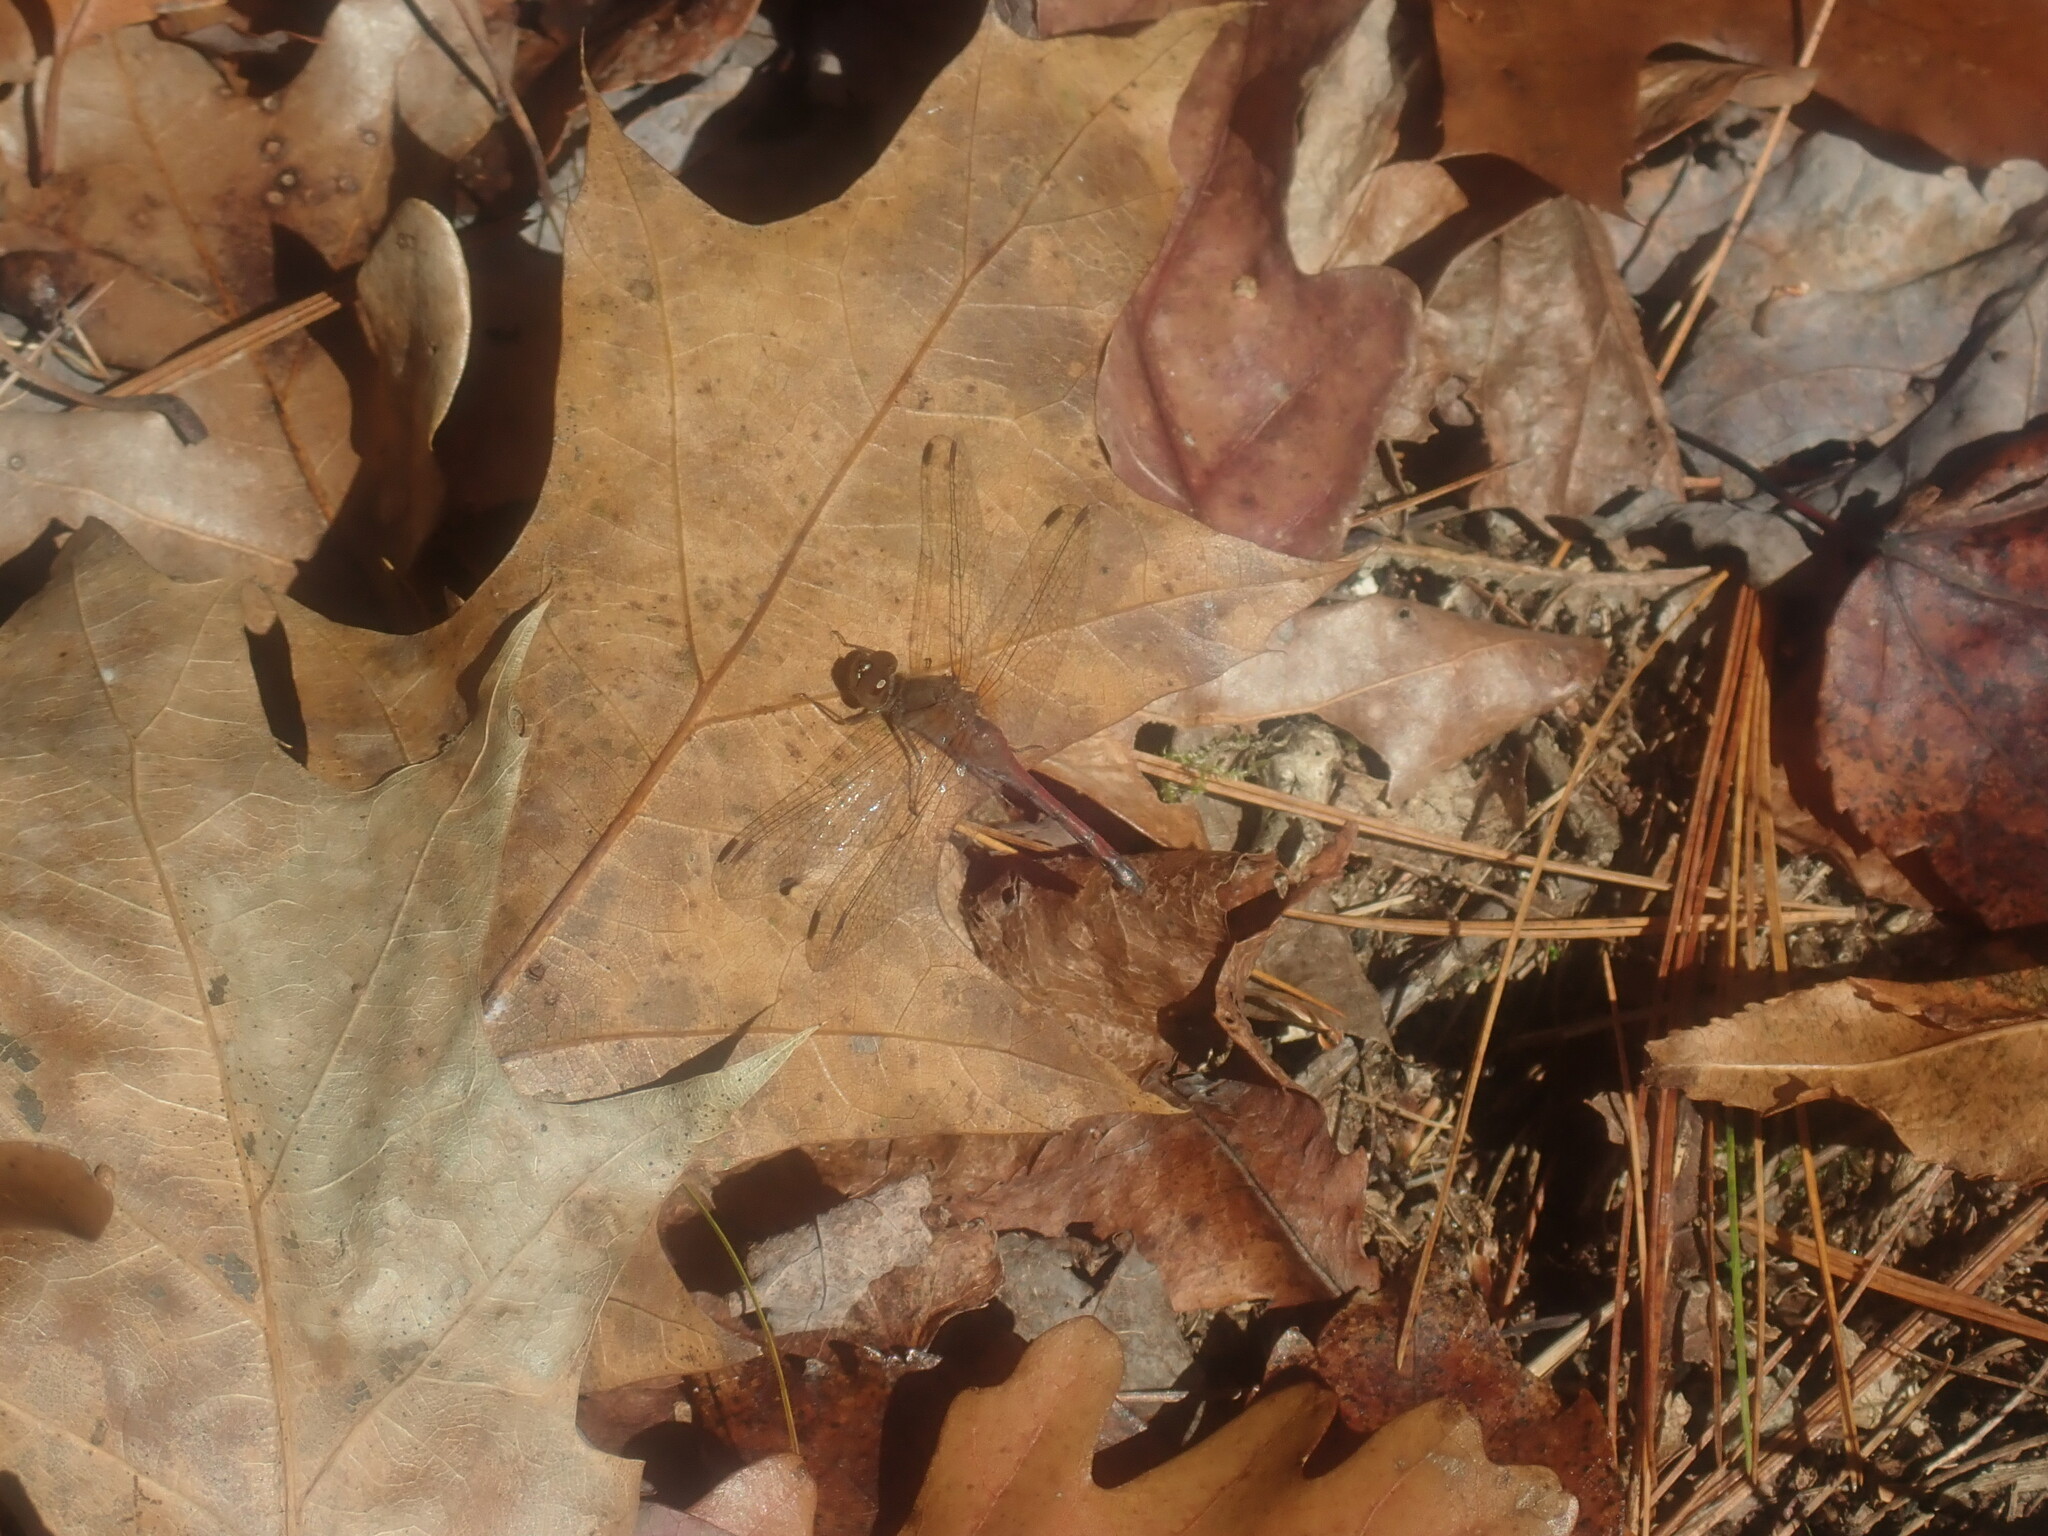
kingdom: Animalia
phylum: Arthropoda
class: Insecta
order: Odonata
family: Libellulidae
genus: Sympetrum
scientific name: Sympetrum vicinum
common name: Autumn meadowhawk
